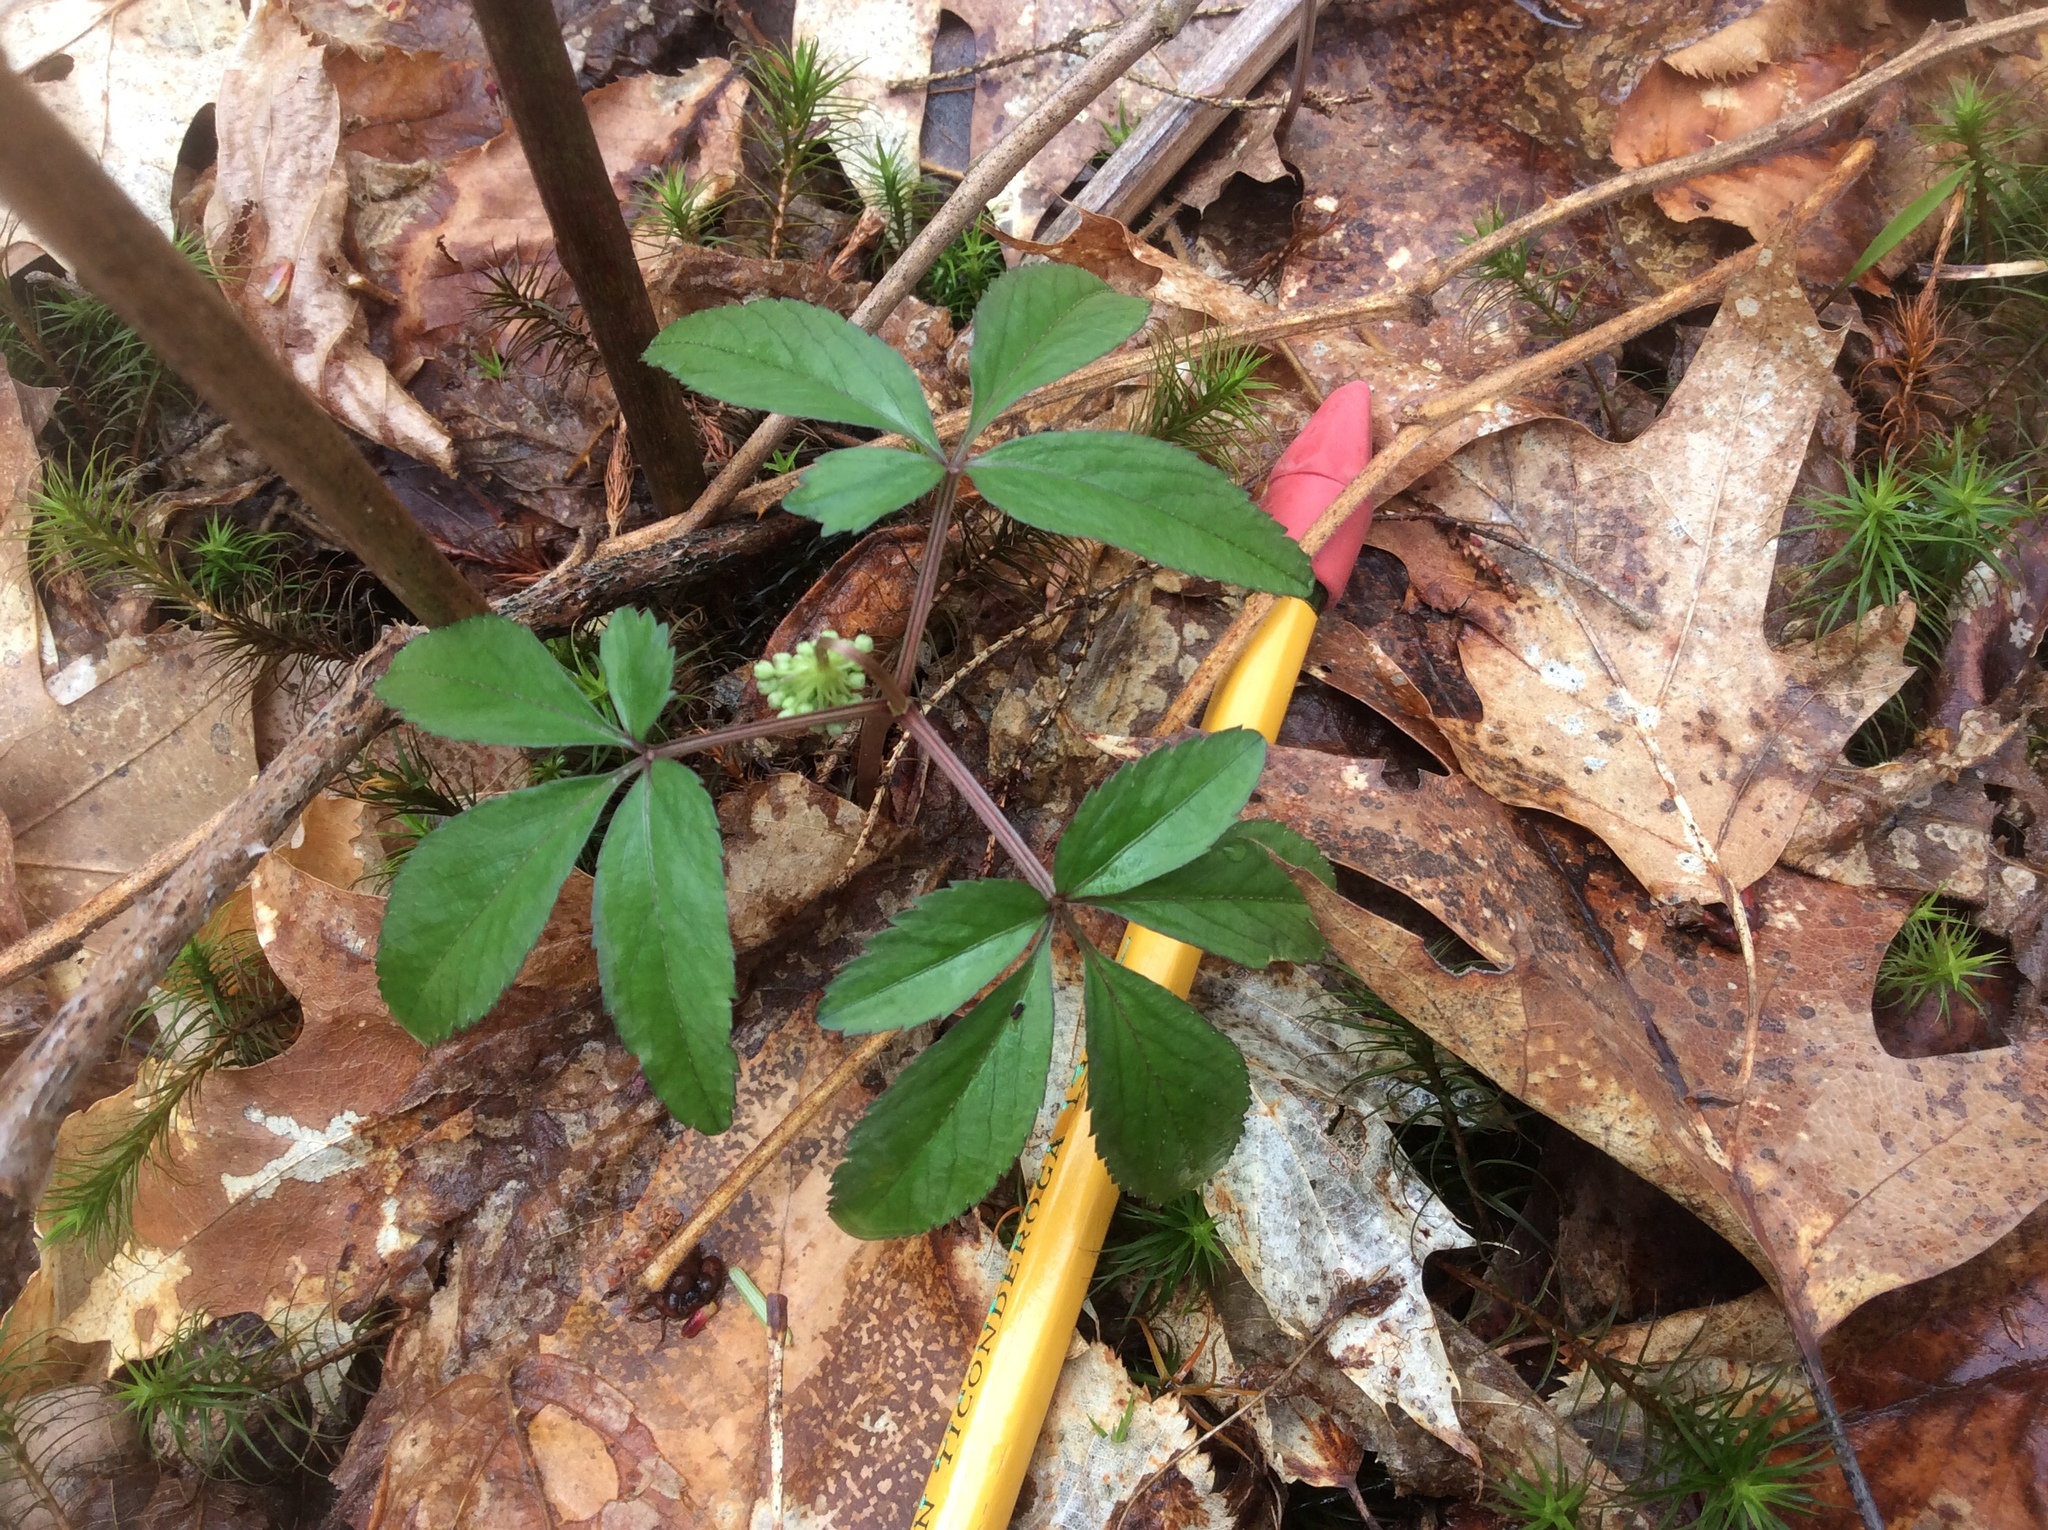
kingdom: Plantae
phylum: Tracheophyta
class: Magnoliopsida
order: Apiales
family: Araliaceae
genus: Panax
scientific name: Panax trifolius
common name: Dwarf ginseng
